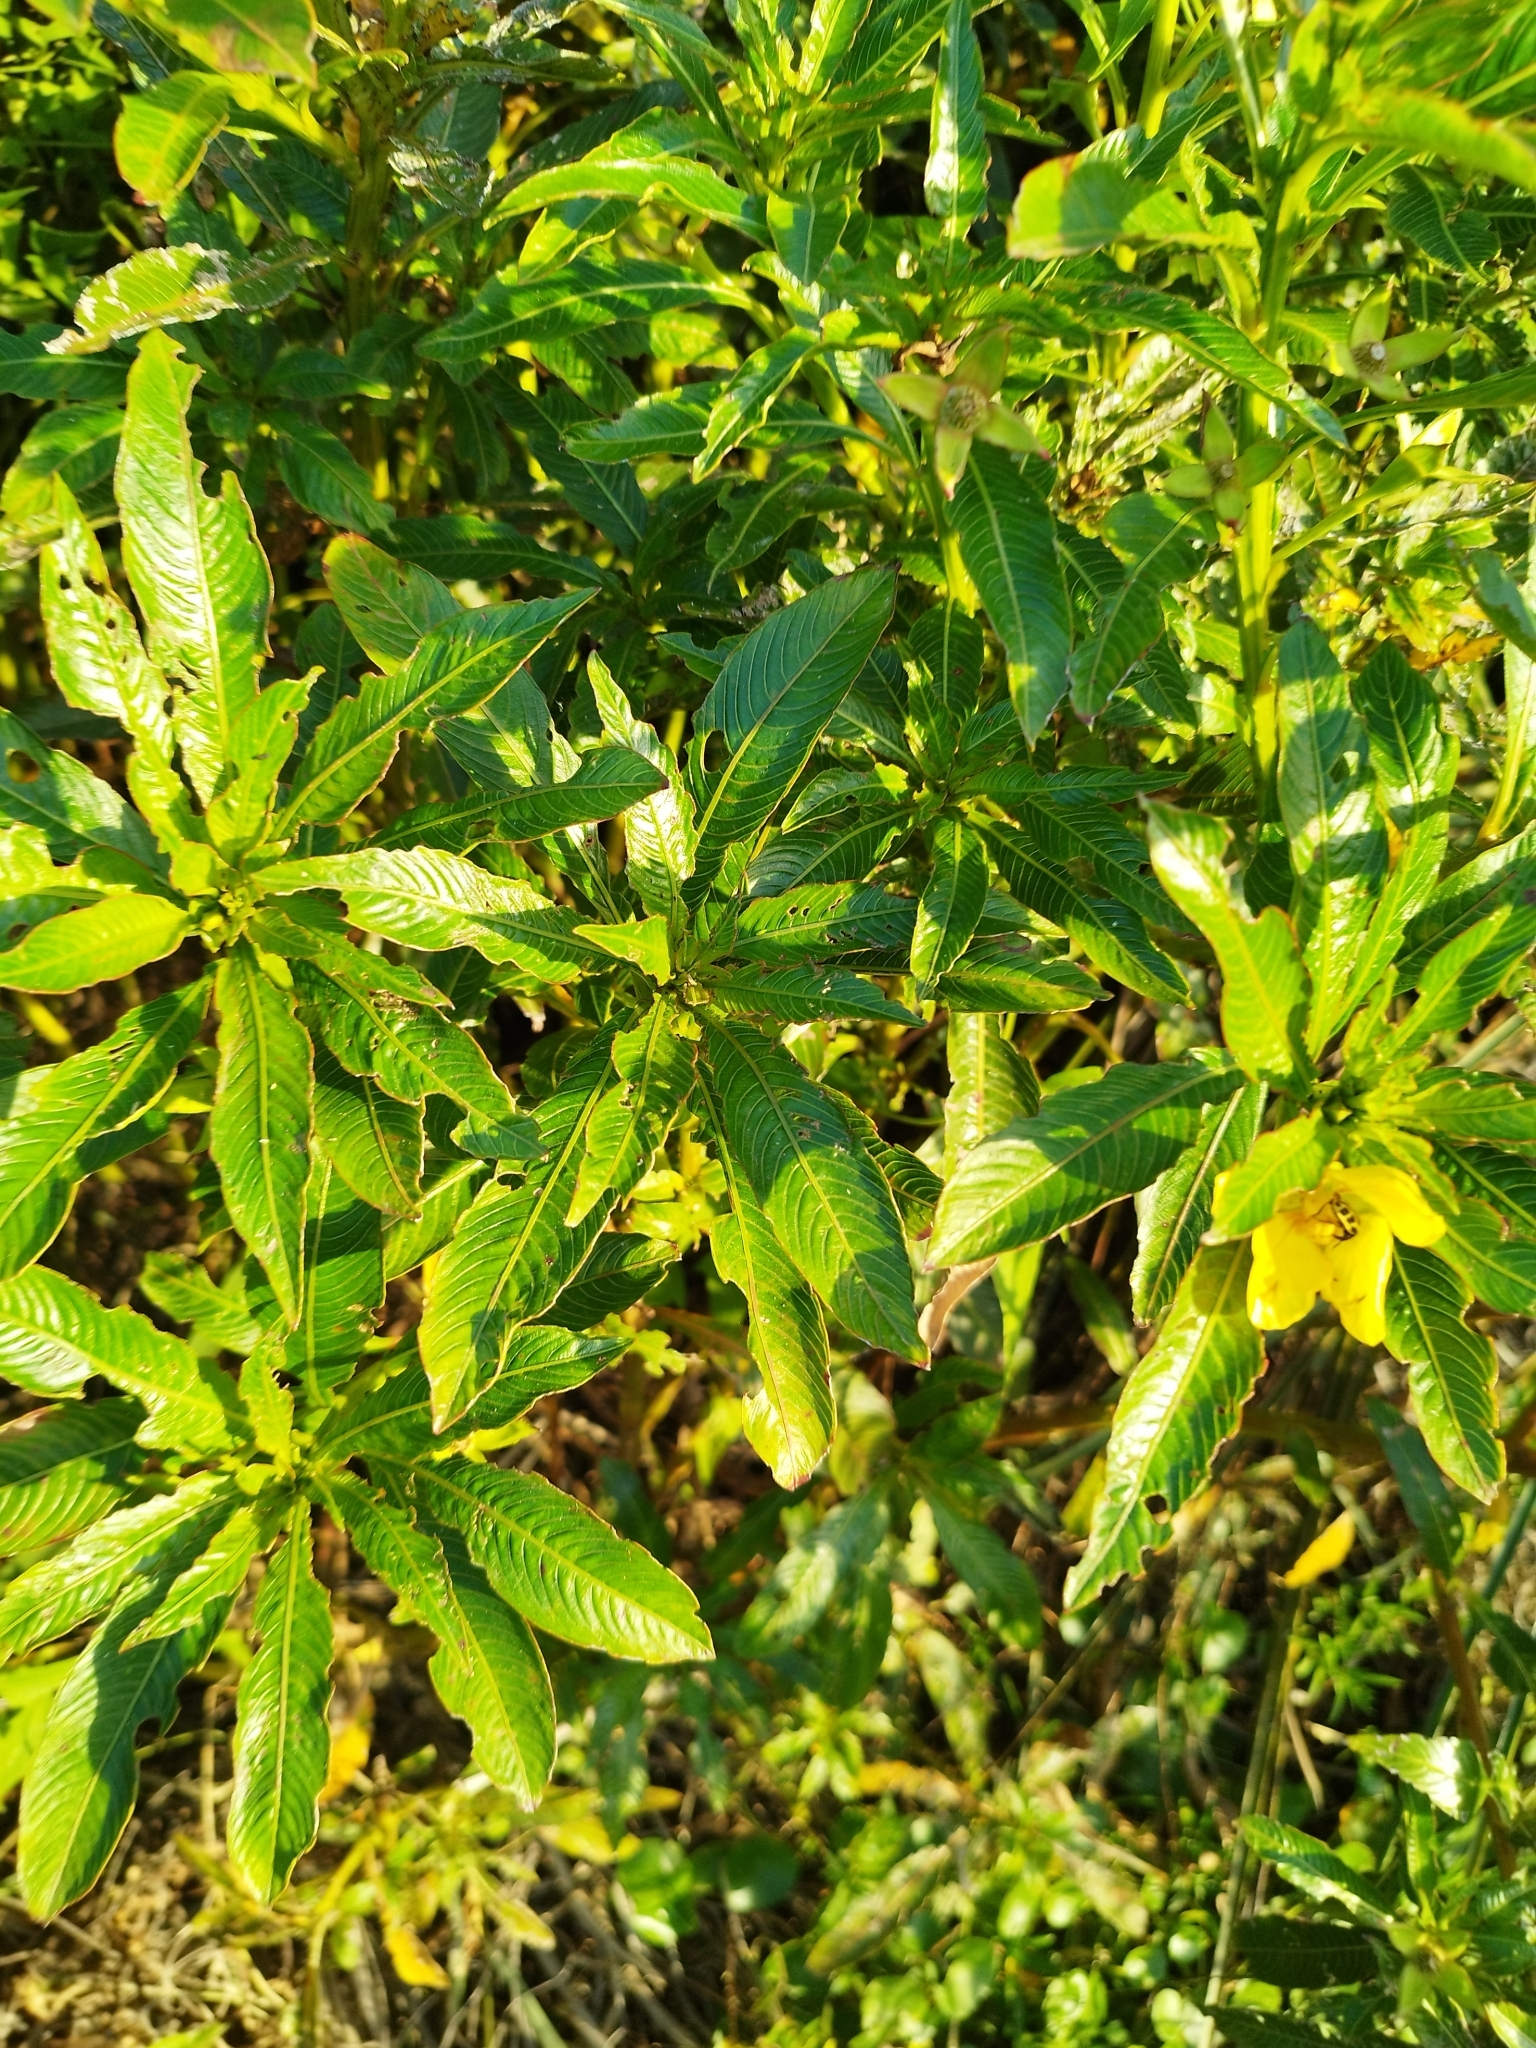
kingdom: Plantae
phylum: Tracheophyta
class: Magnoliopsida
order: Myrtales
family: Onagraceae
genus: Ludwigia
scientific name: Ludwigia elegans
